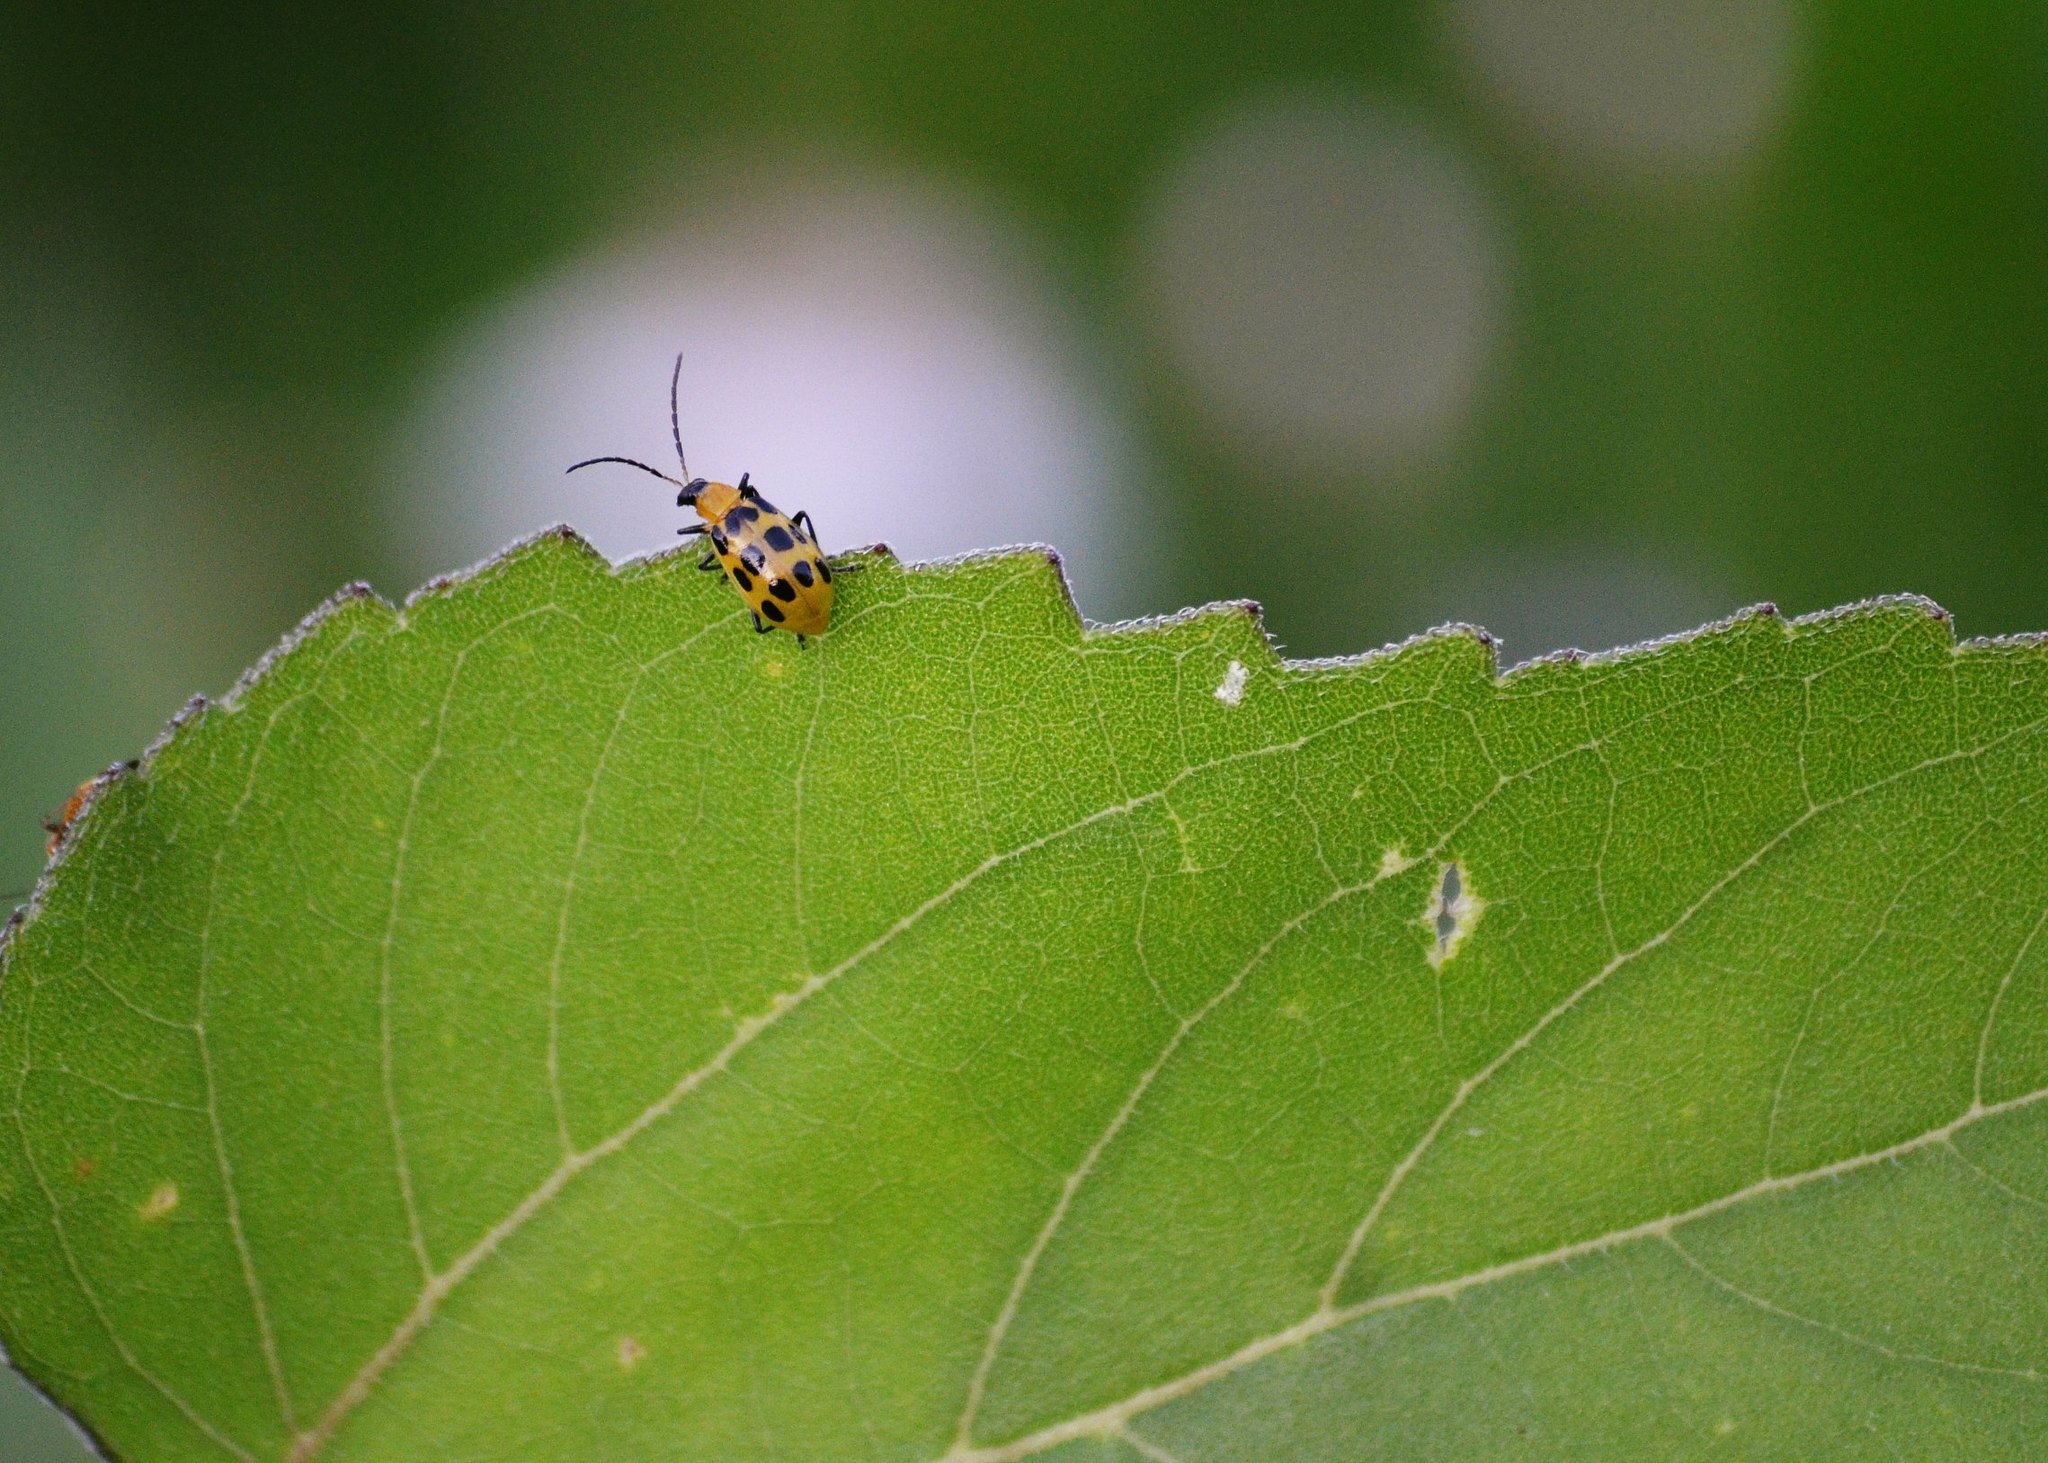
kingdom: Animalia
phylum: Arthropoda
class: Insecta
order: Coleoptera
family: Chrysomelidae
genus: Diabrotica
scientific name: Diabrotica undecimpunctata
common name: Spotted cucumber beetle
